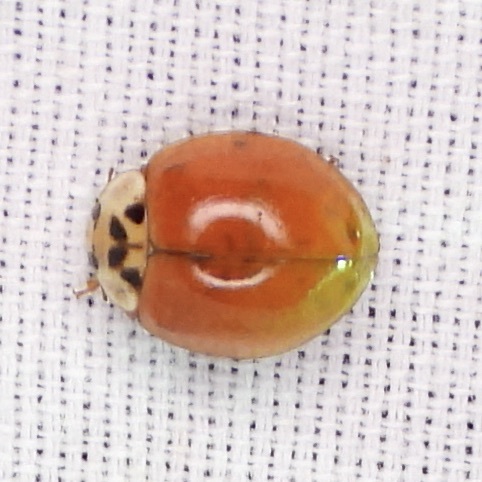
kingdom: Animalia
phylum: Arthropoda
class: Insecta
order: Coleoptera
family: Coccinellidae
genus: Harmonia
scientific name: Harmonia axyridis
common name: Harlequin ladybird
